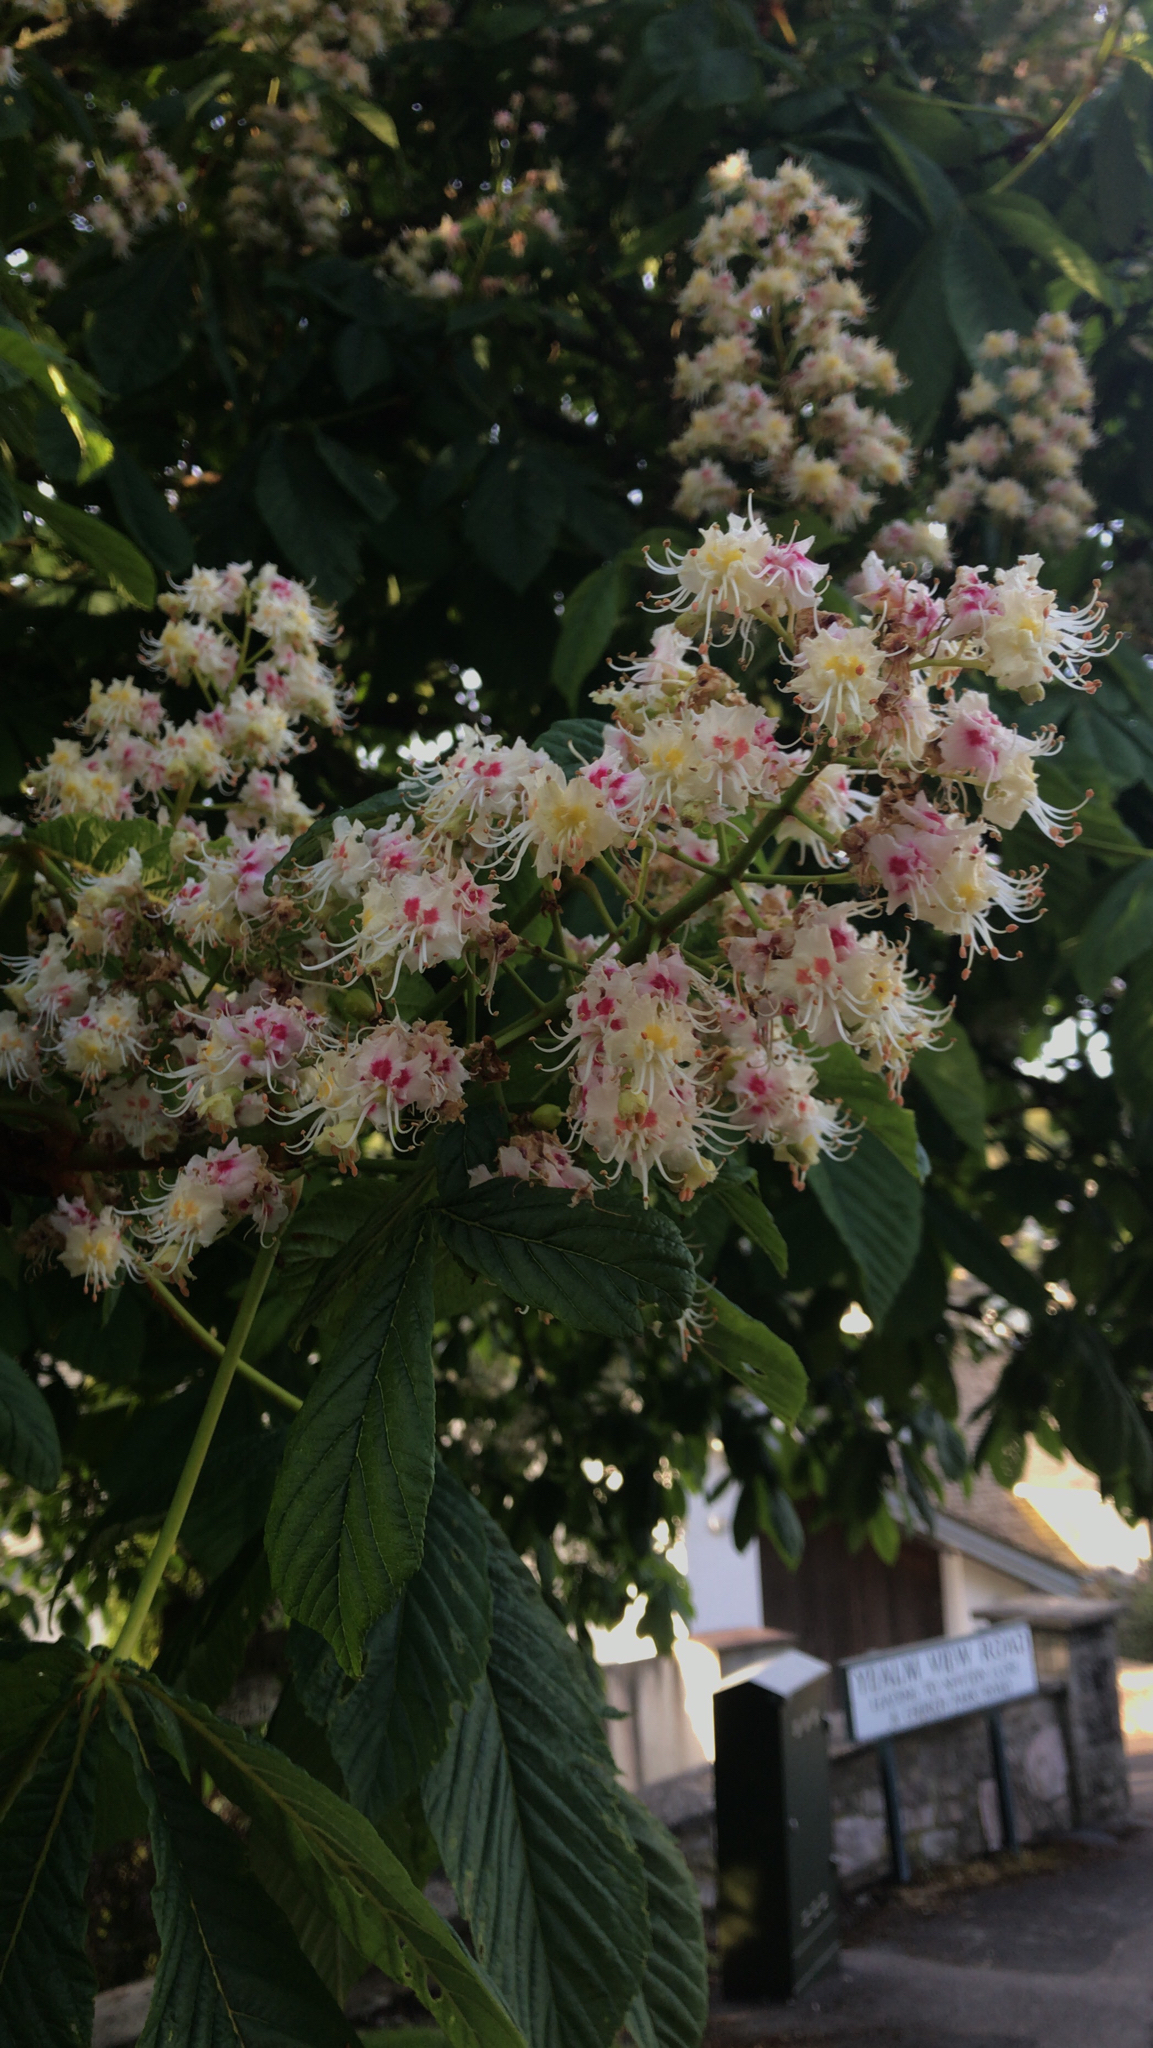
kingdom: Plantae
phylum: Tracheophyta
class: Magnoliopsida
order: Sapindales
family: Sapindaceae
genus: Aesculus
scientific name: Aesculus hippocastanum
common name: Horse-chestnut
